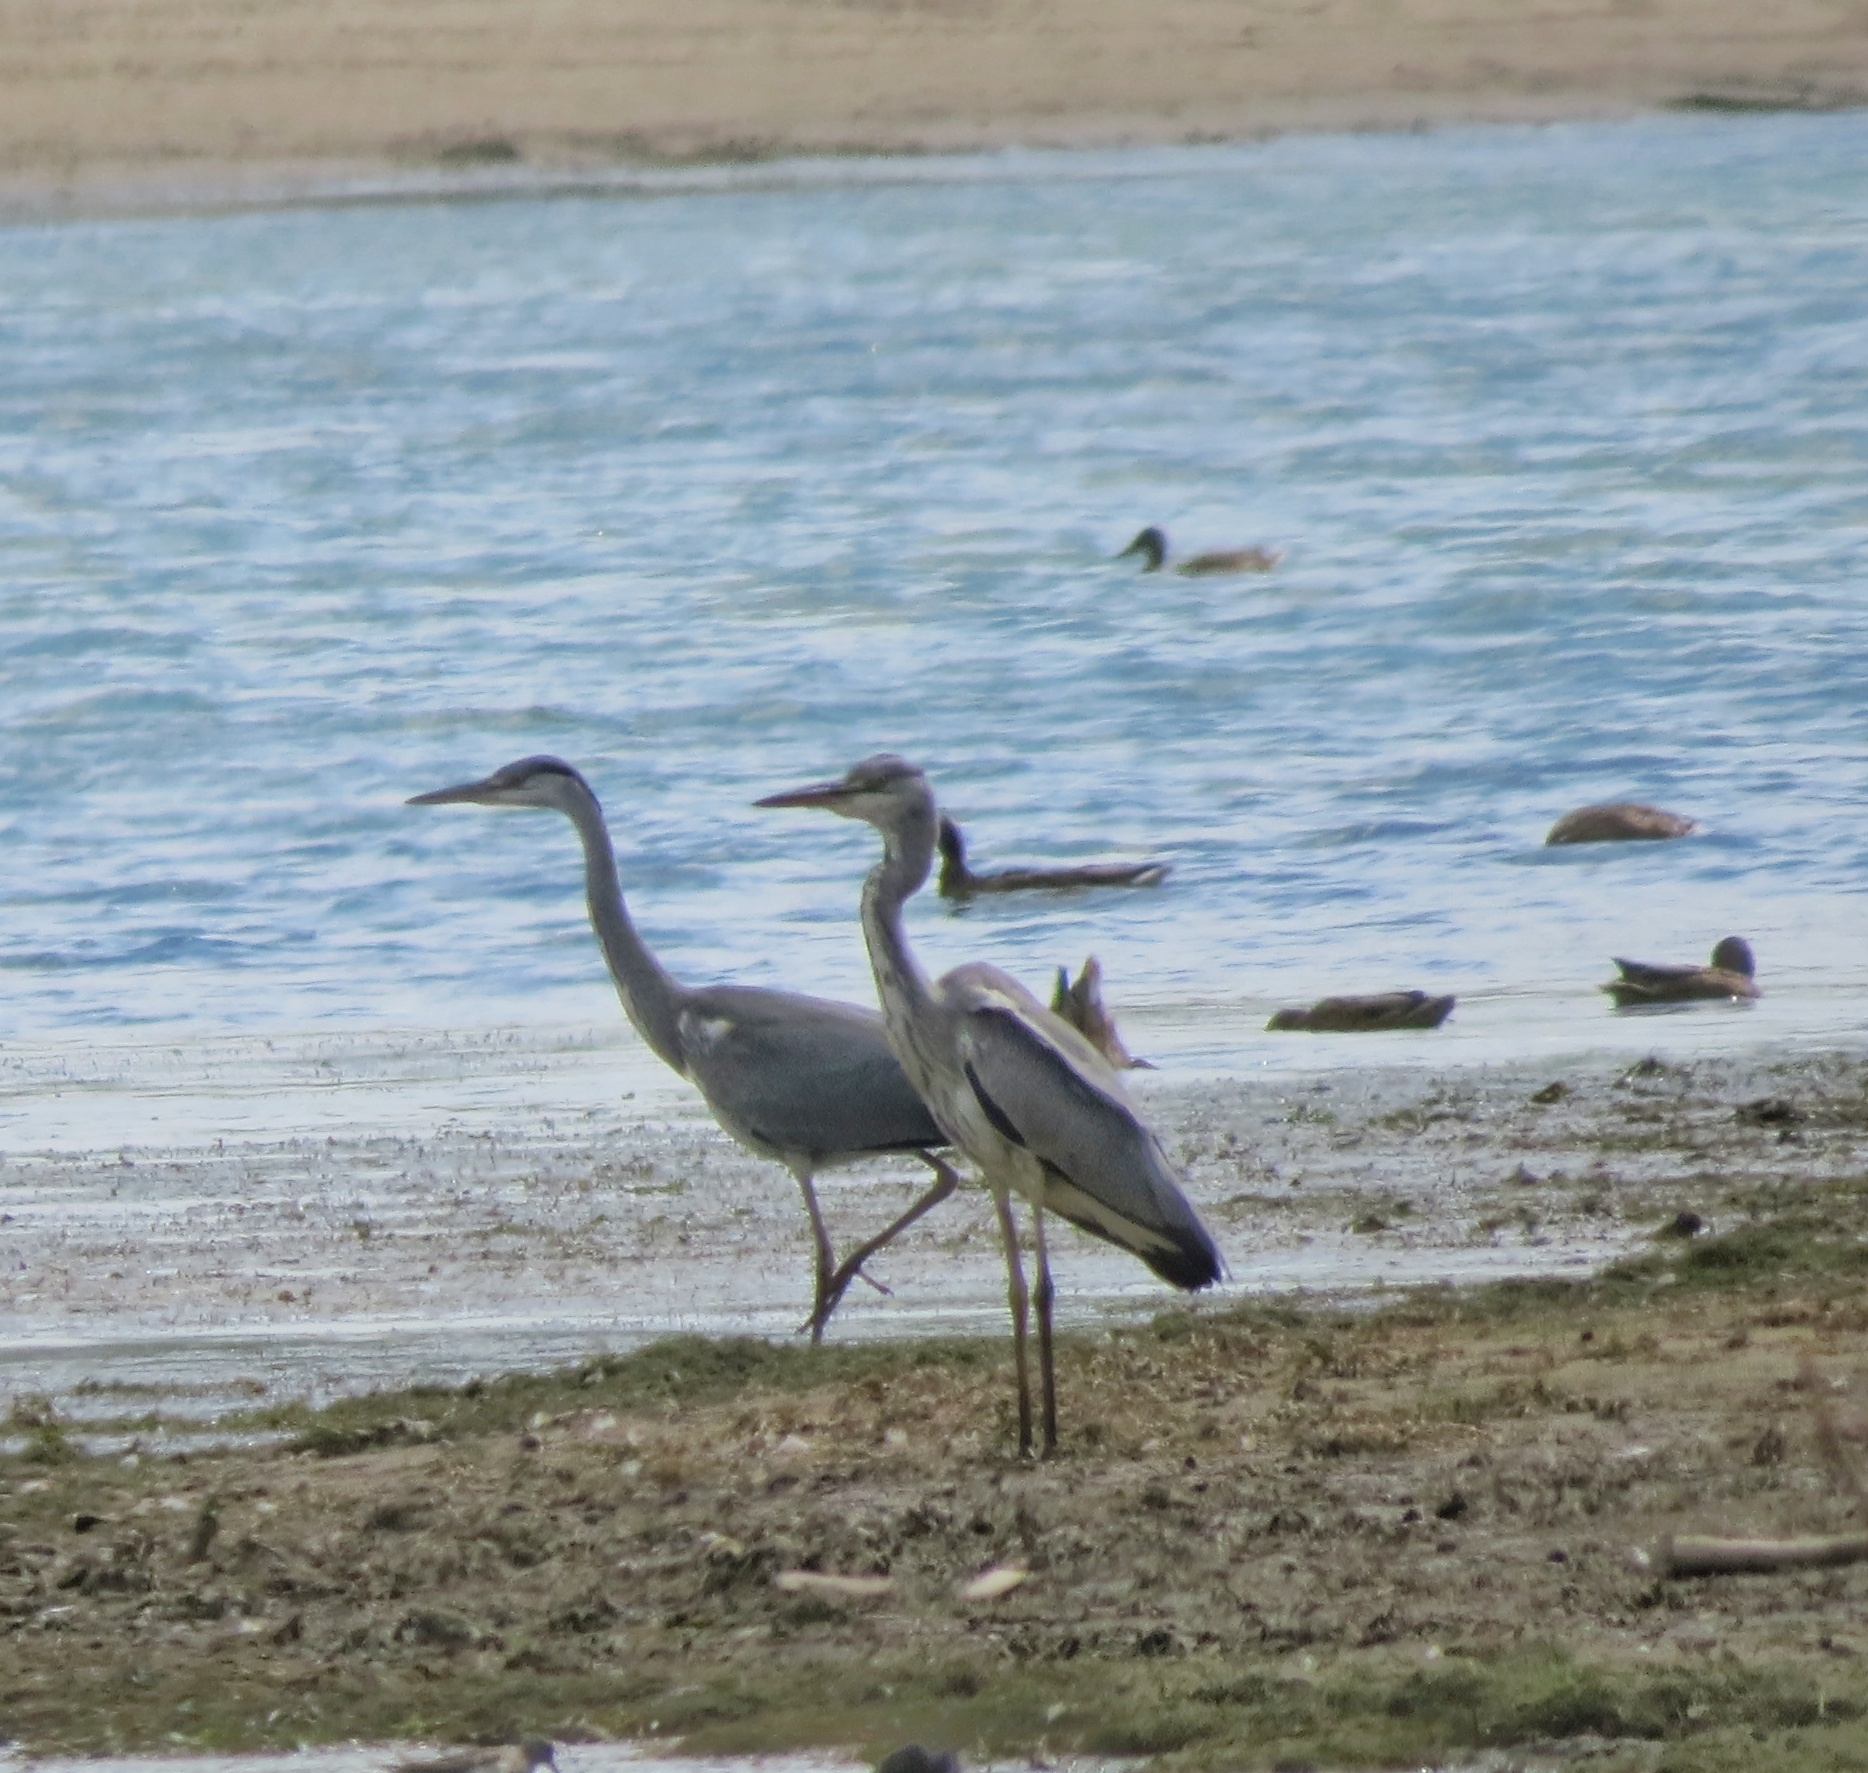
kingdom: Animalia
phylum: Chordata
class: Aves
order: Pelecaniformes
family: Ardeidae
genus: Ardea
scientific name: Ardea cinerea
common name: Grey heron
